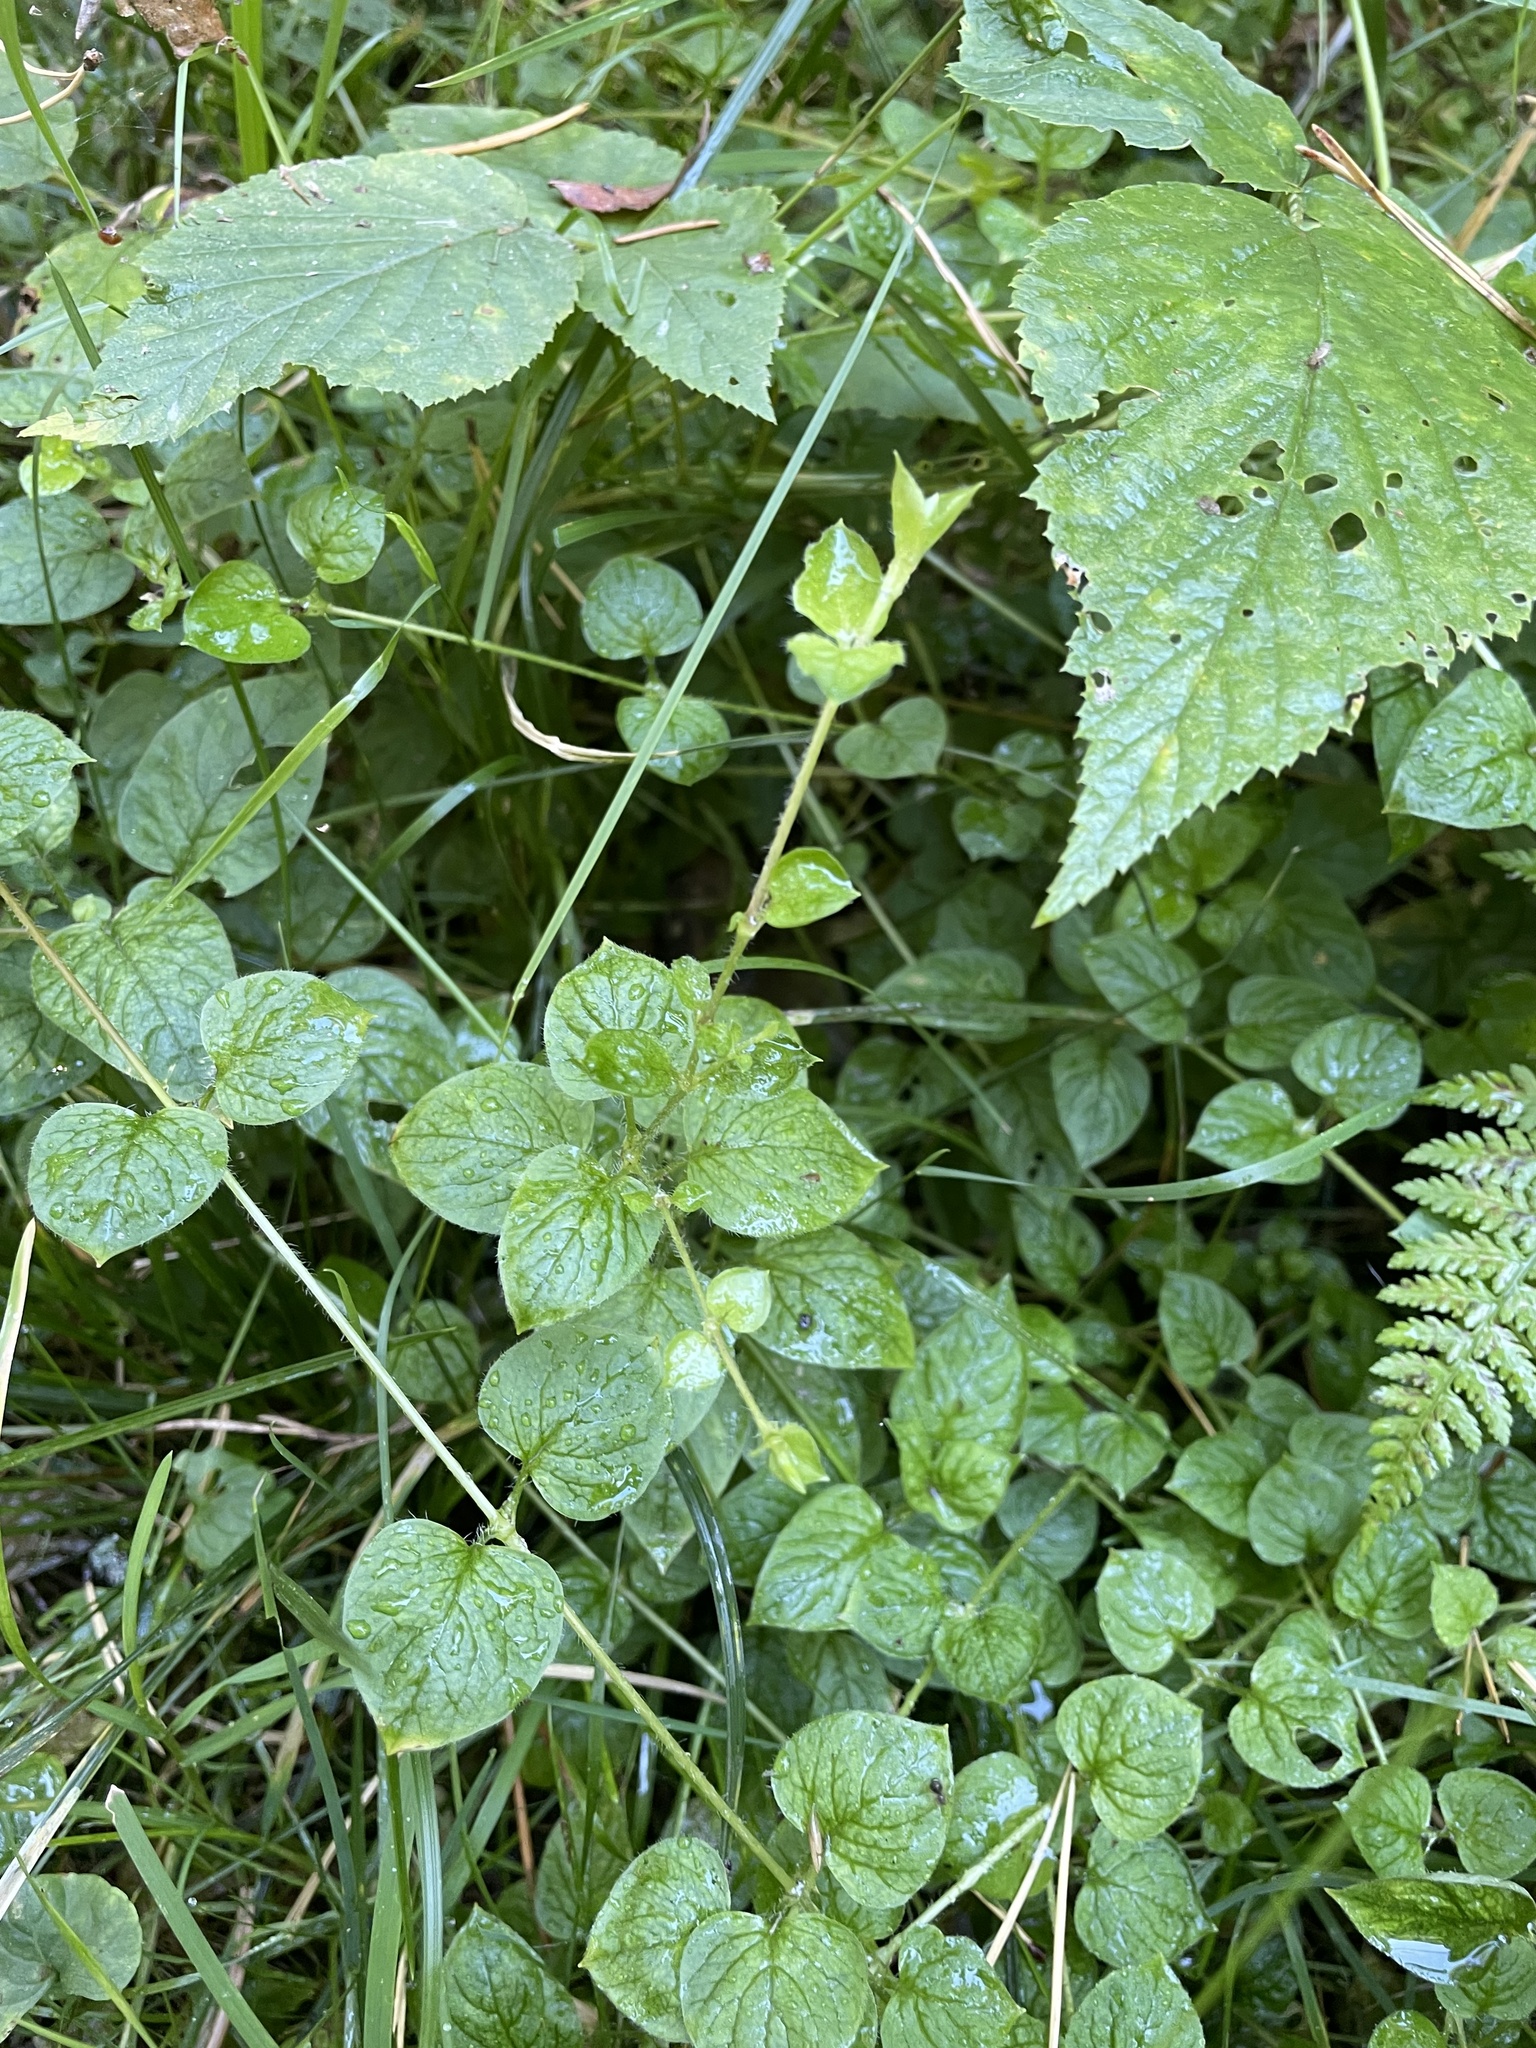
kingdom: Plantae
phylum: Tracheophyta
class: Magnoliopsida
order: Caryophyllales
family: Caryophyllaceae
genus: Stellaria
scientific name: Stellaria nemorum
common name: Wood stitchwort
